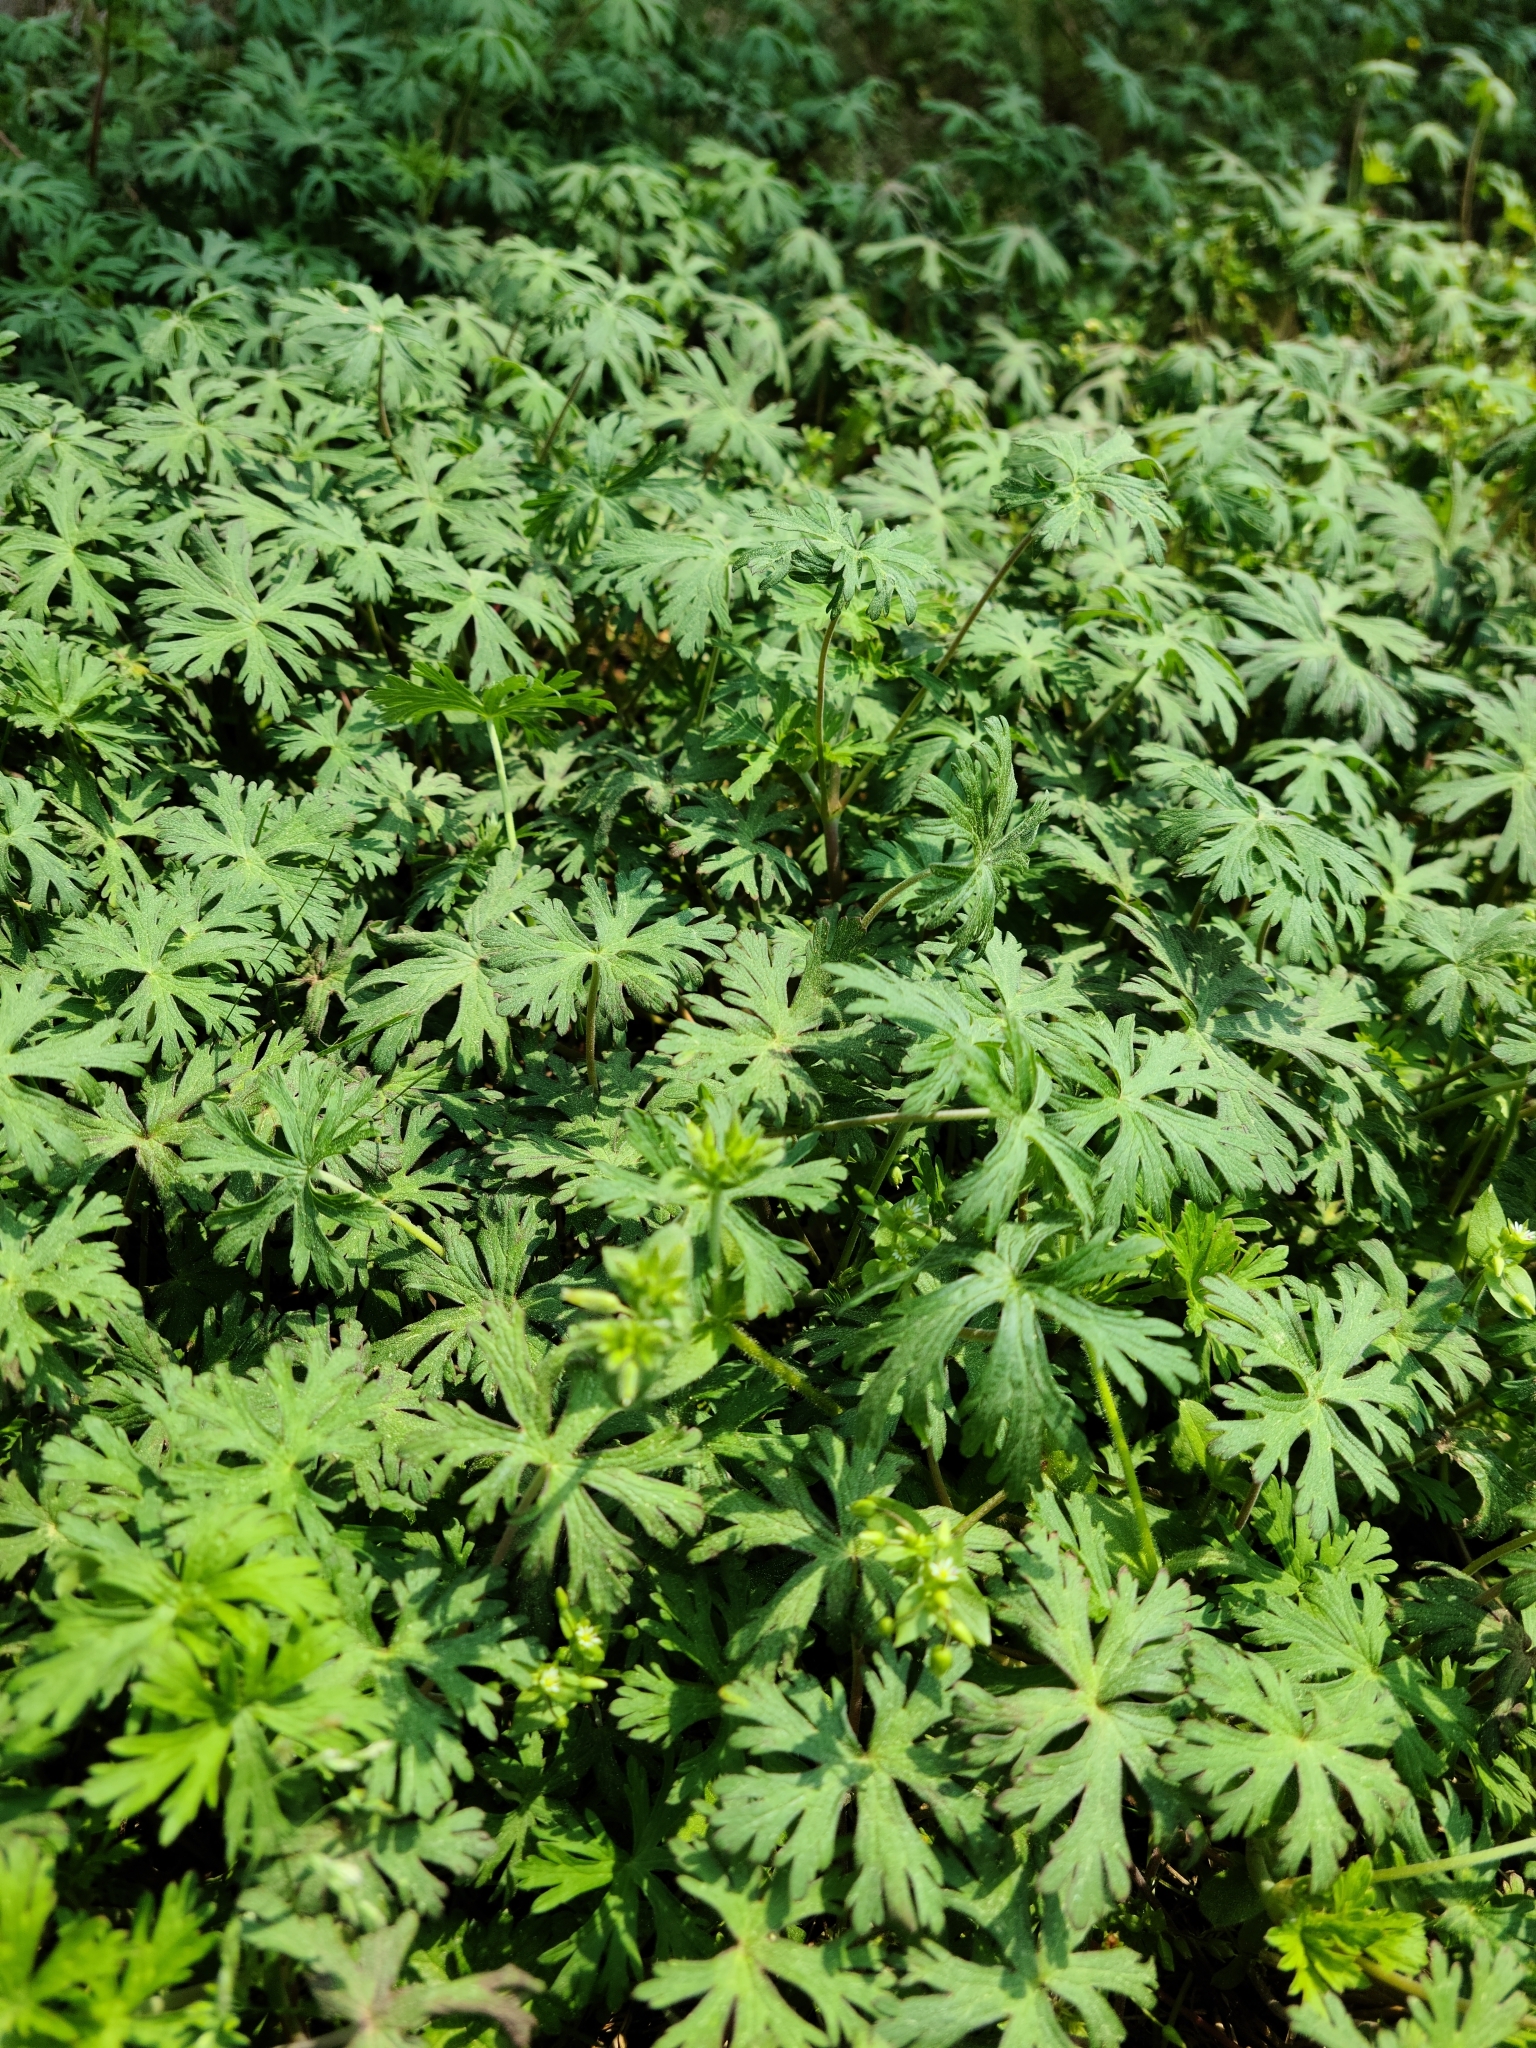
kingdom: Plantae
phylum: Tracheophyta
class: Magnoliopsida
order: Geraniales
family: Geraniaceae
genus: Geranium
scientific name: Geranium carolinianum
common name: Carolina crane's-bill
